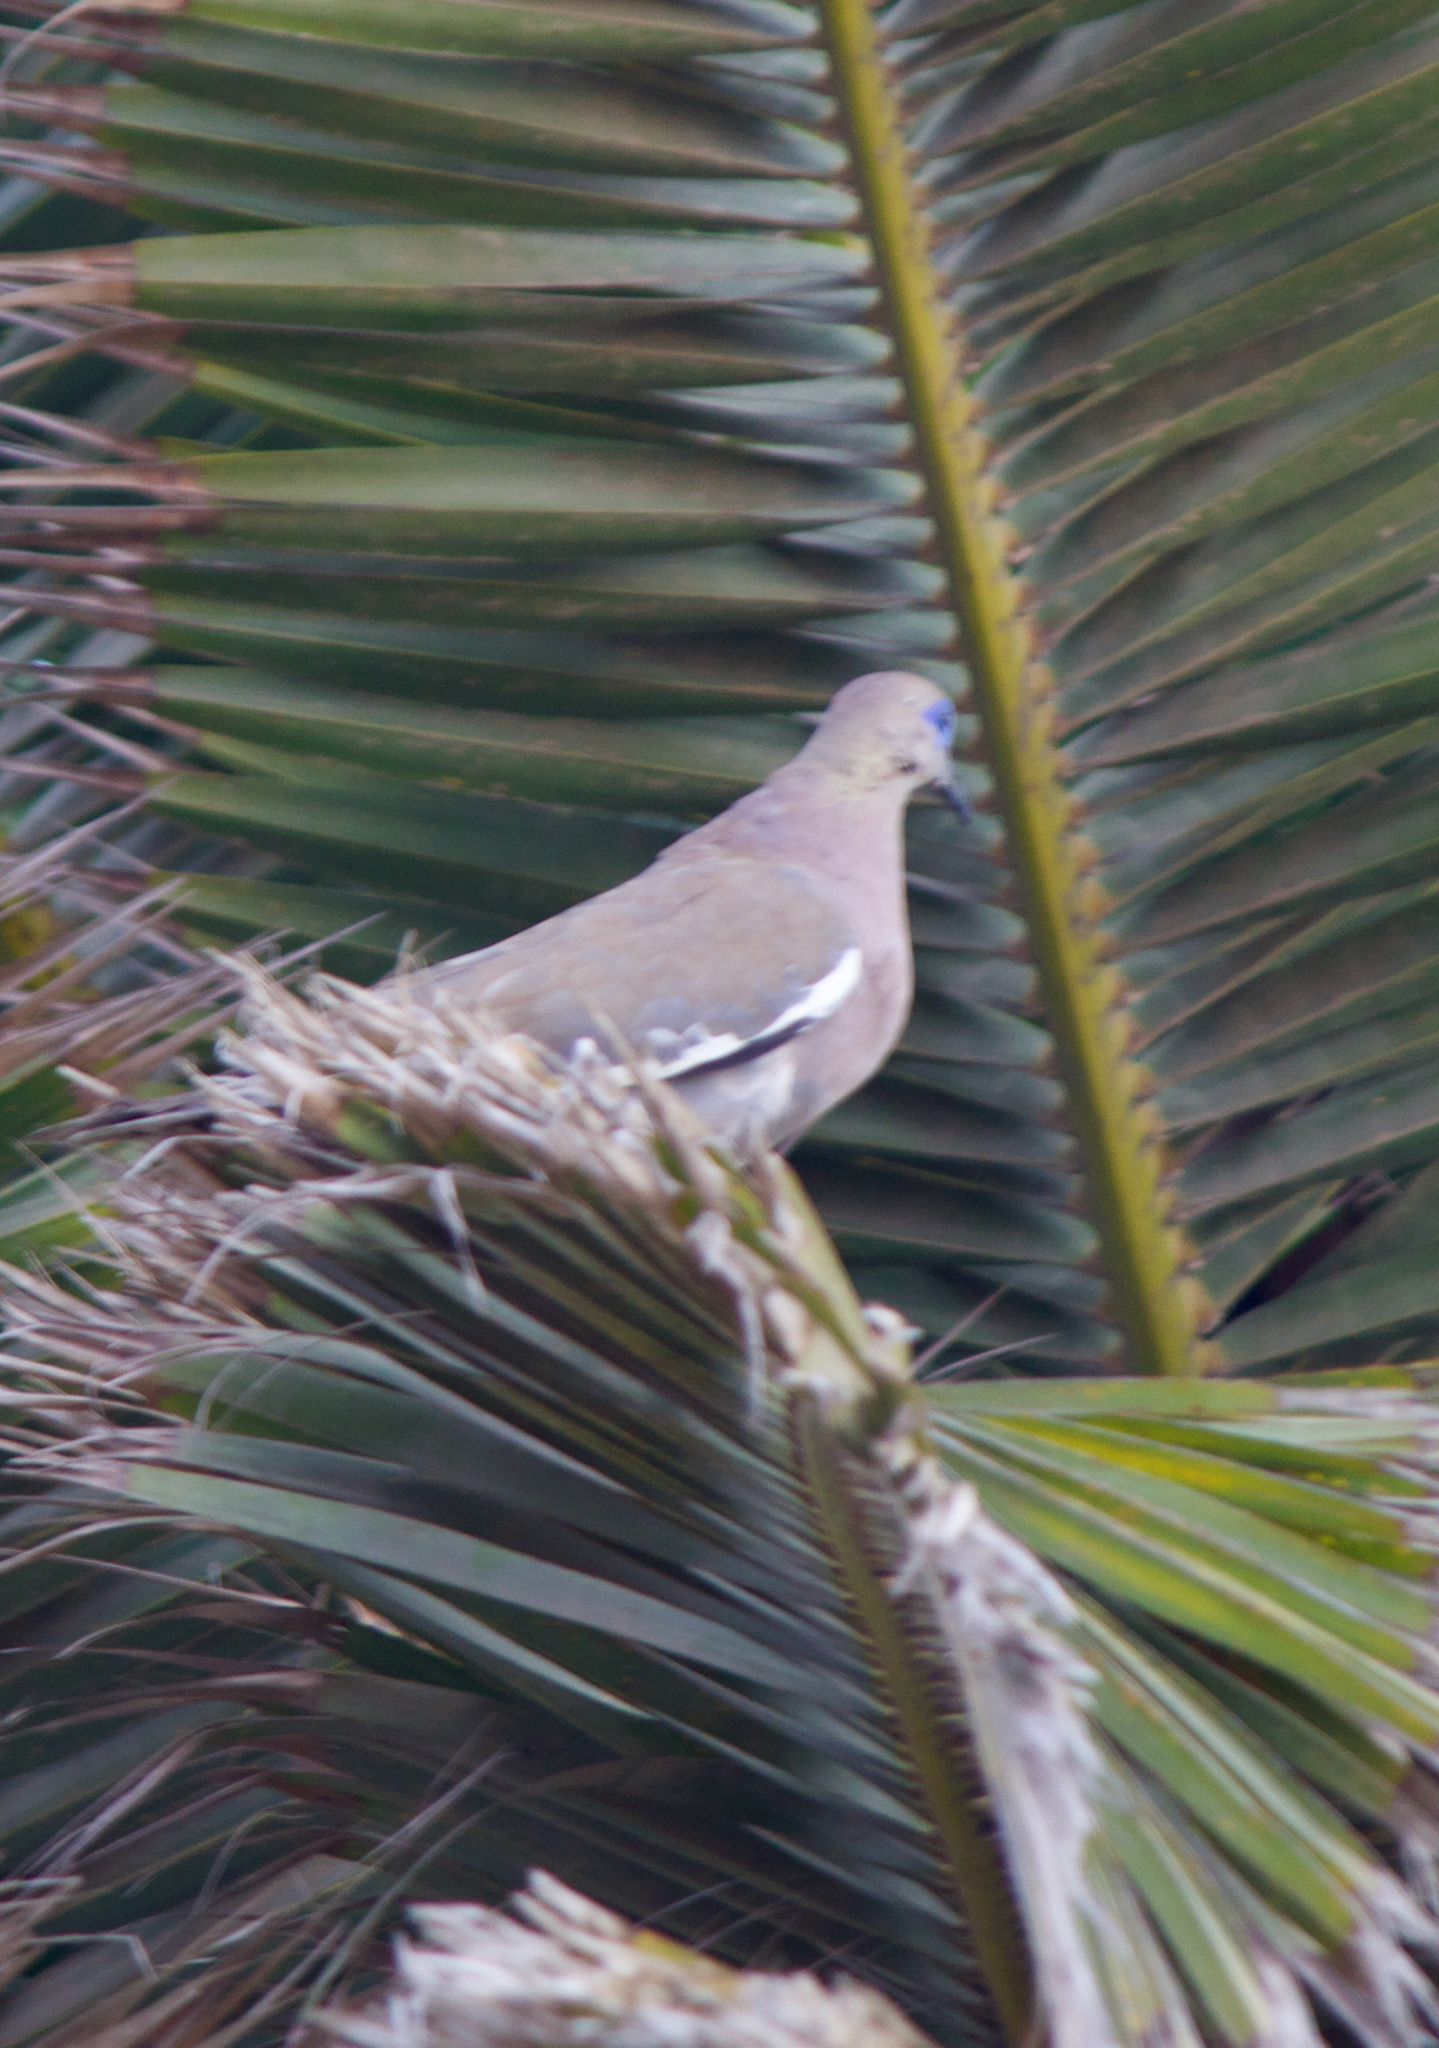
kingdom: Animalia
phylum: Chordata
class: Aves
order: Columbiformes
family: Columbidae
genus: Zenaida
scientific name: Zenaida meloda
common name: West peruvian dove
